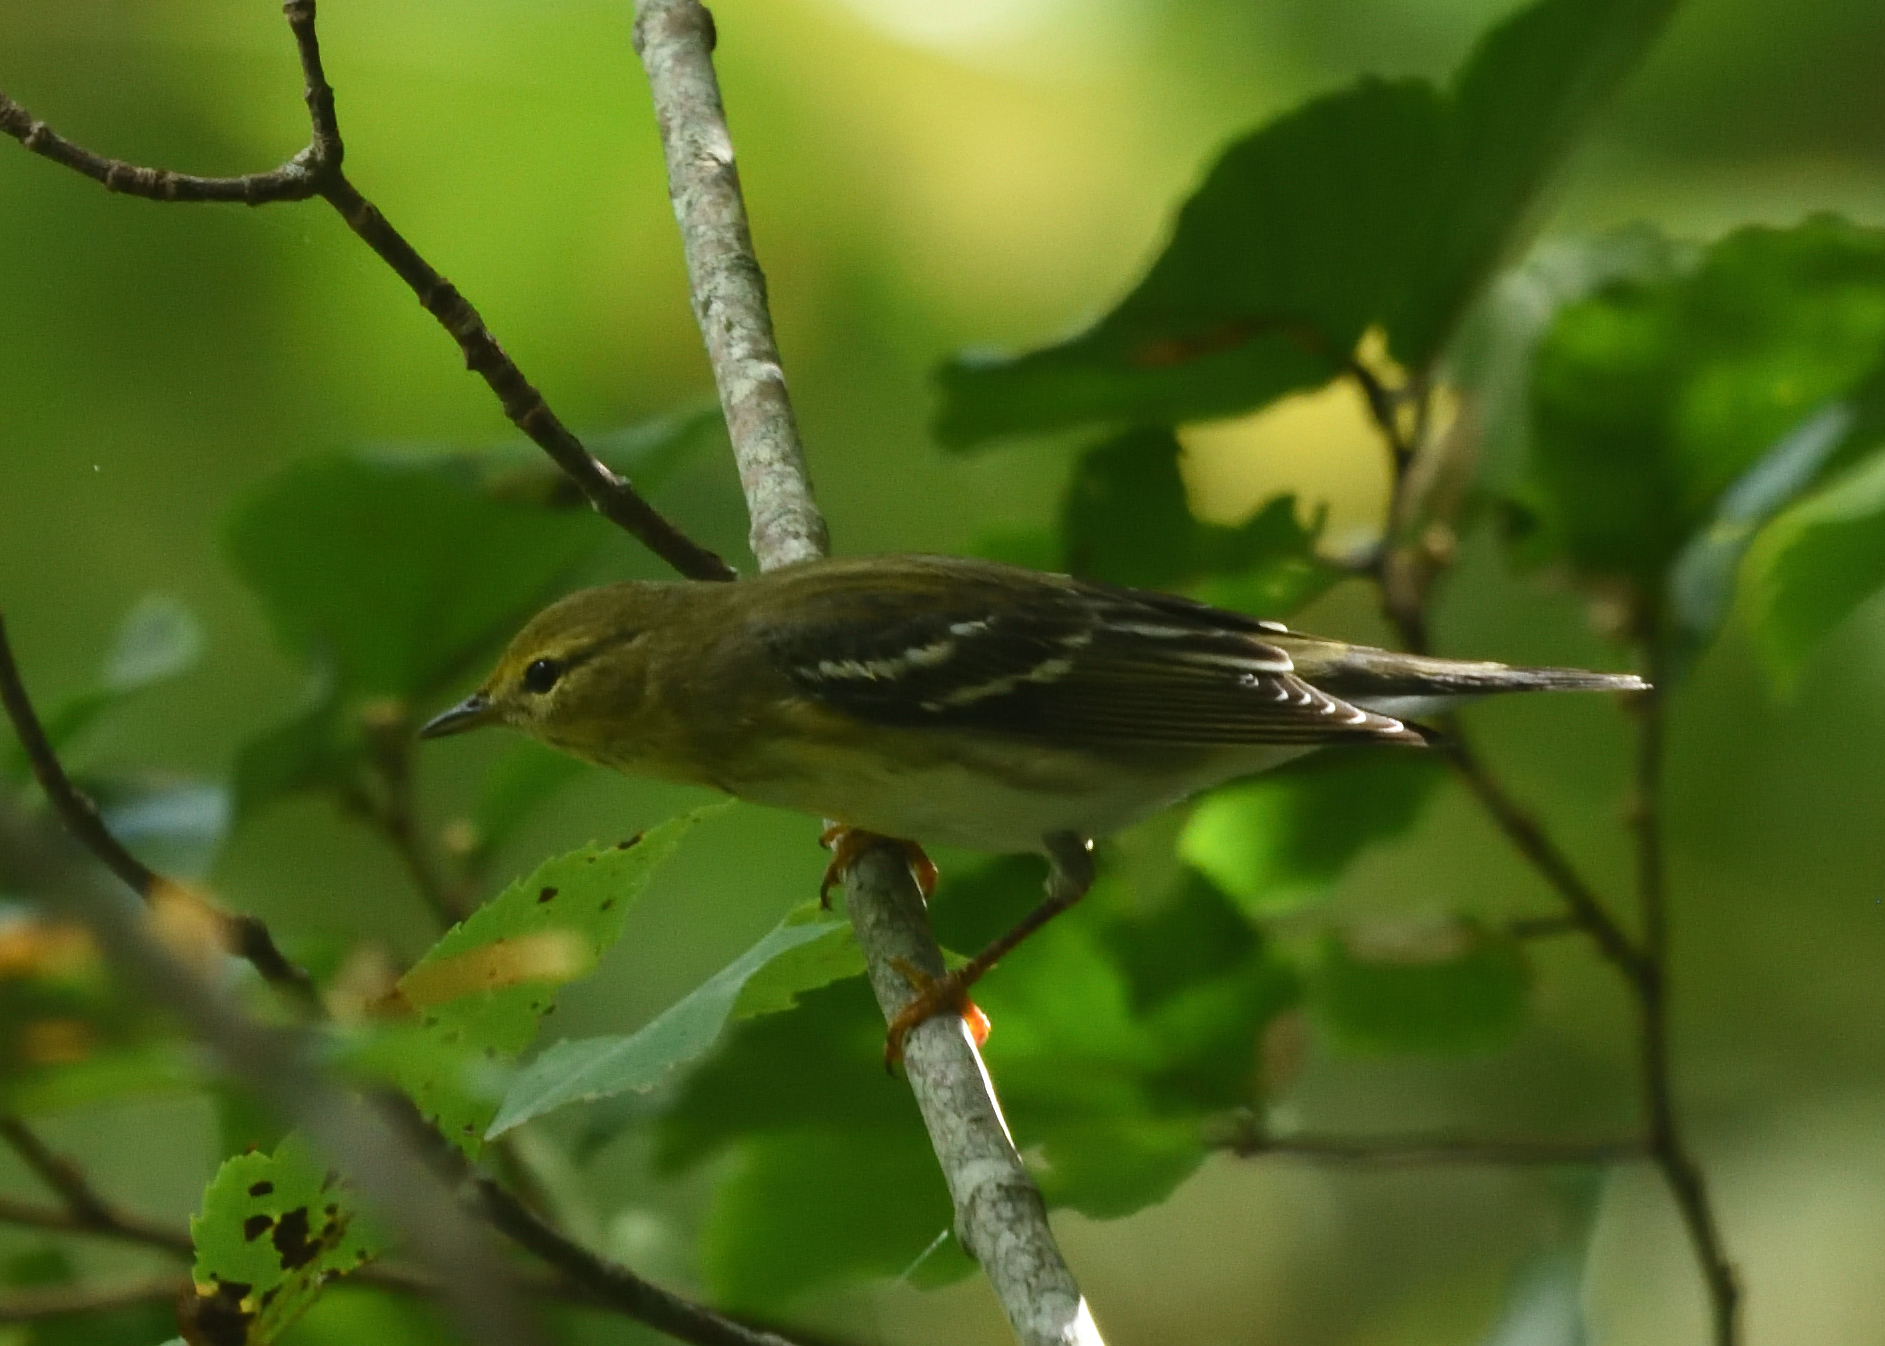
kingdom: Animalia
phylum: Chordata
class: Aves
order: Passeriformes
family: Parulidae
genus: Setophaga
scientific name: Setophaga striata
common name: Blackpoll warbler
